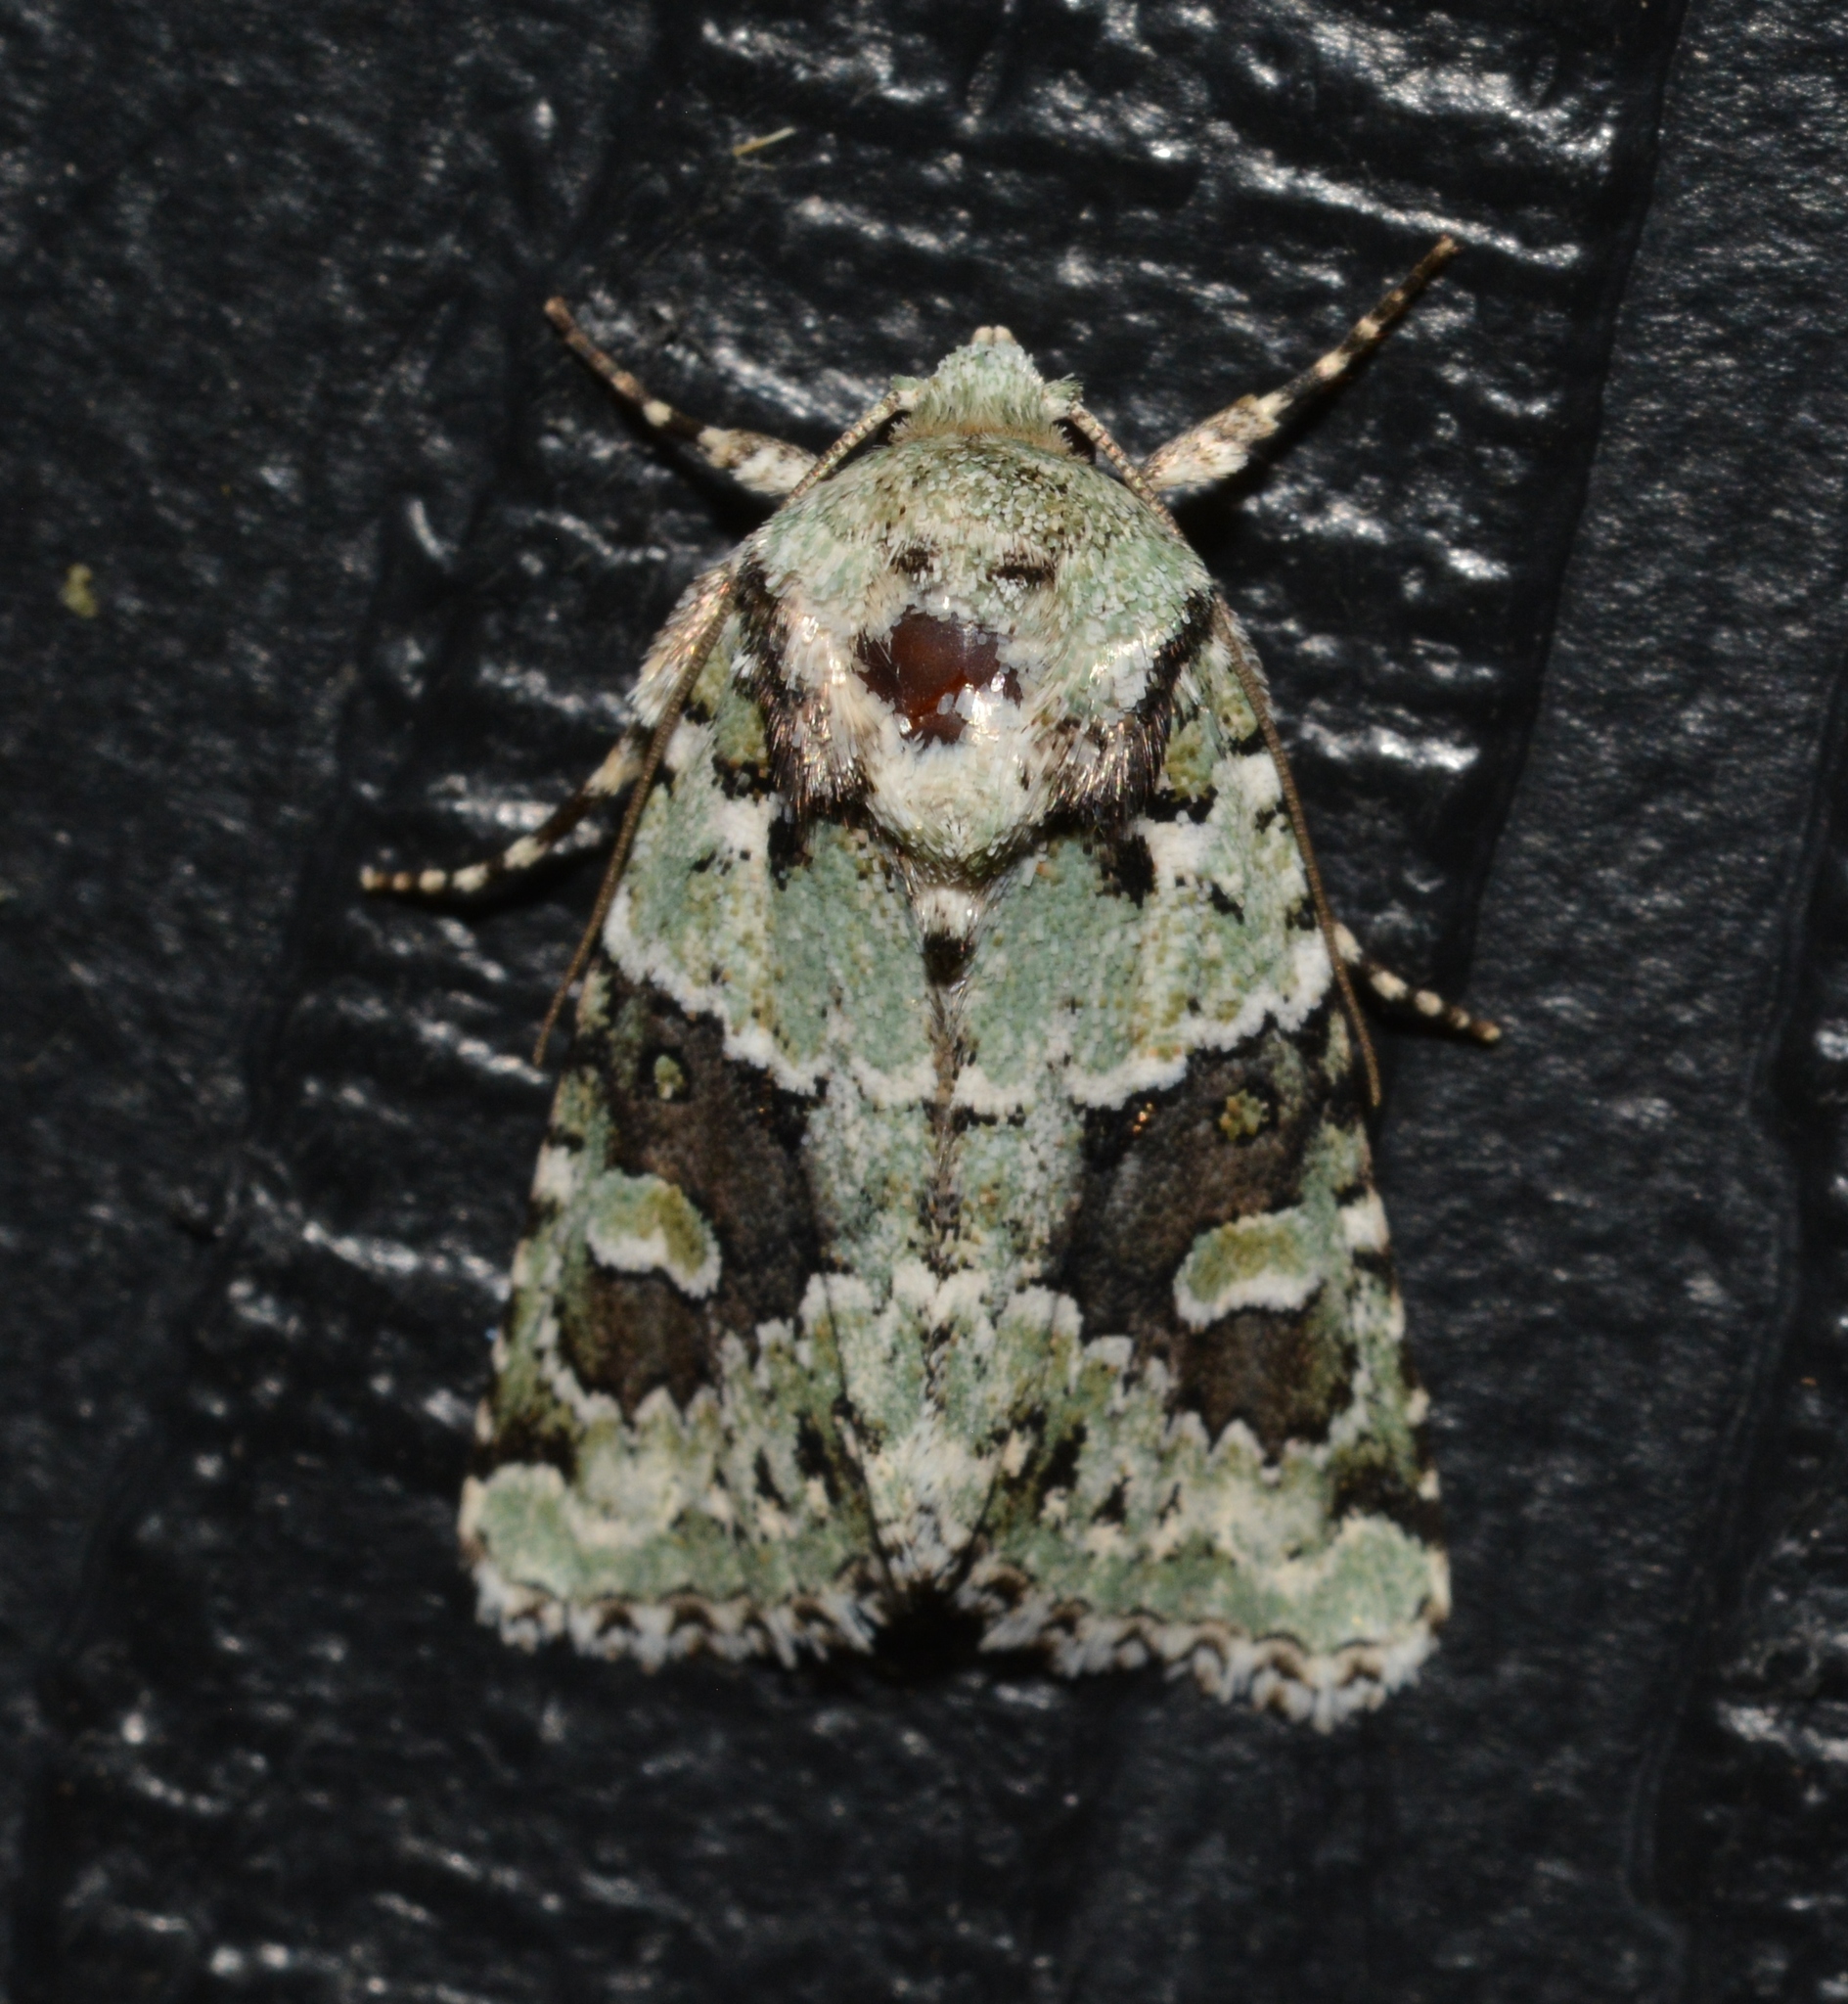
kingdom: Animalia
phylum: Arthropoda
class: Insecta
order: Lepidoptera
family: Noctuidae
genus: Lacinipolia
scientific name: Lacinipolia implicata
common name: Implicit arches
